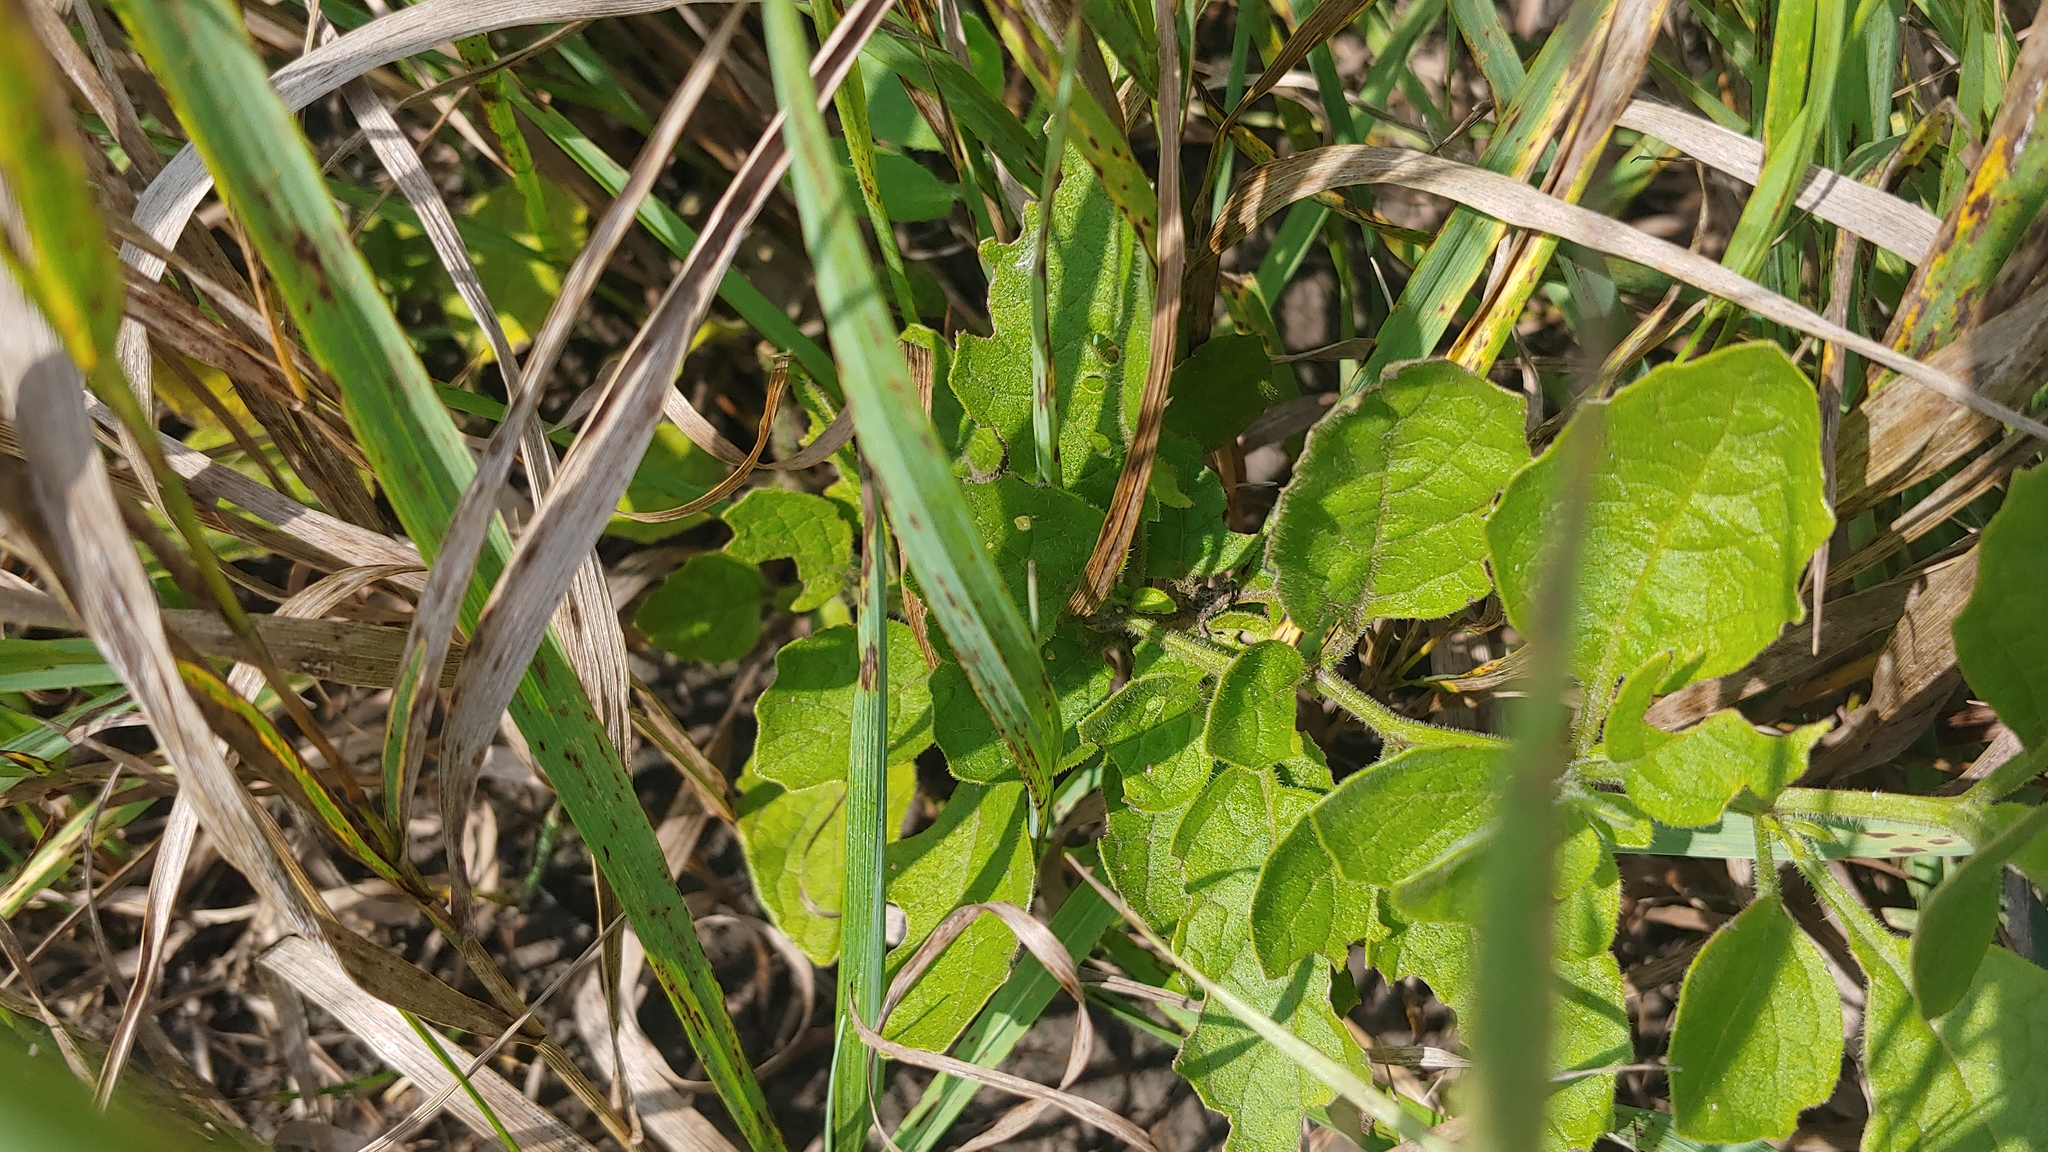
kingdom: Plantae
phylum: Tracheophyta
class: Magnoliopsida
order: Solanales
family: Solanaceae
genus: Physalis
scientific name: Physalis heterophylla
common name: Clammy ground-cherry
